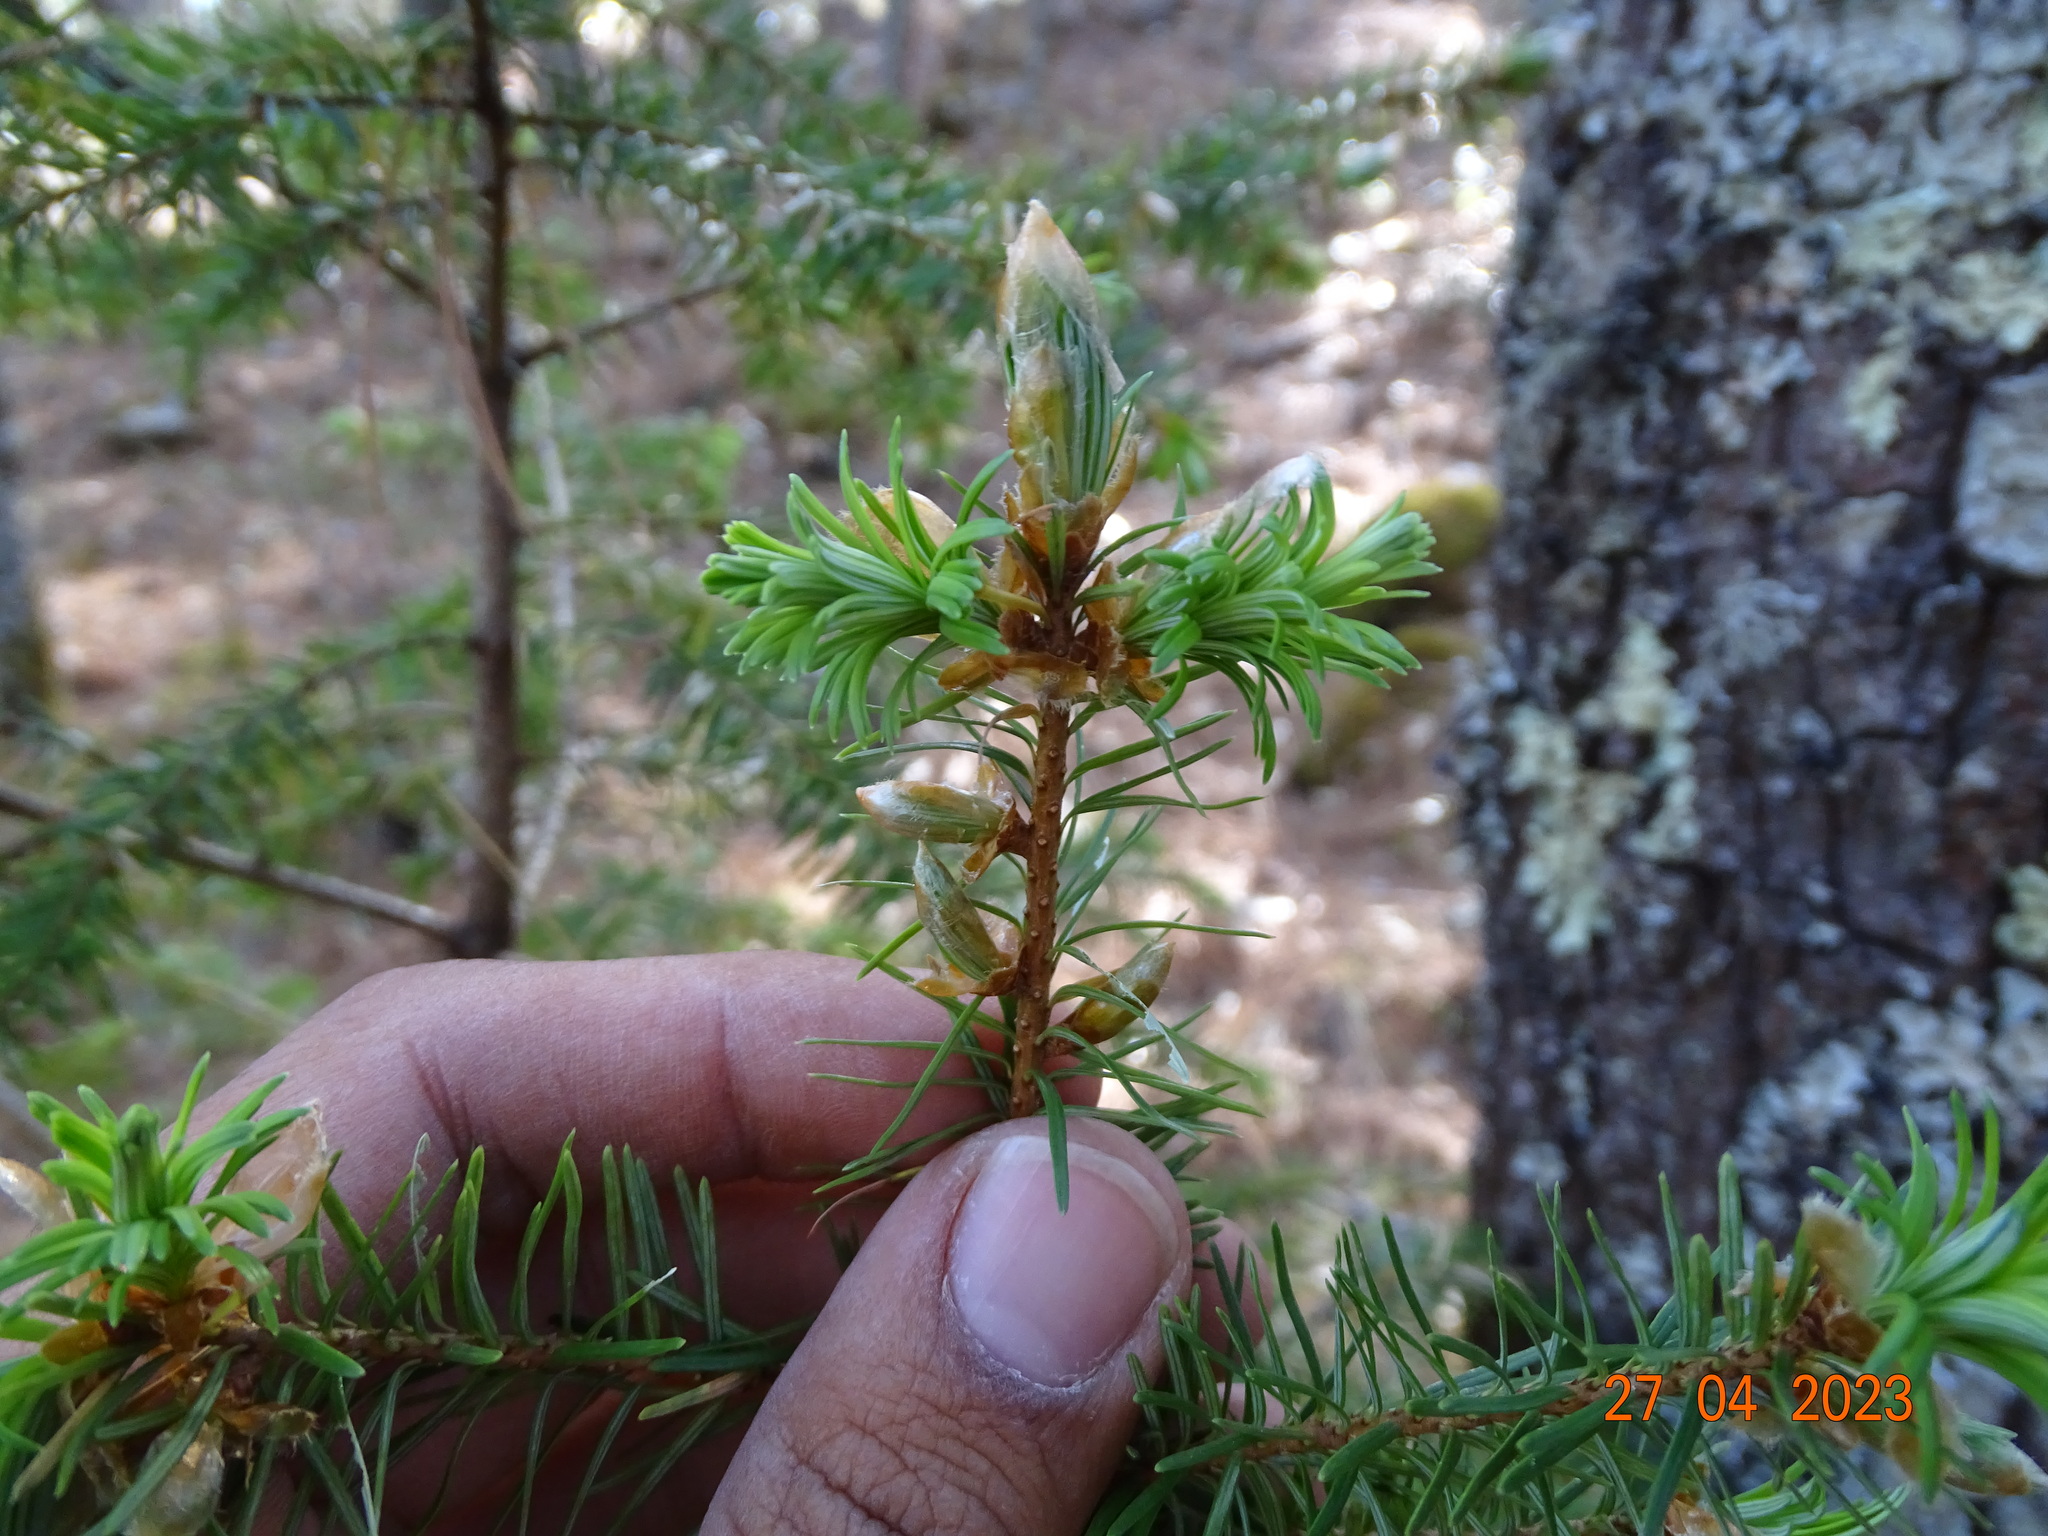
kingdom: Plantae
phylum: Tracheophyta
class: Pinopsida
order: Pinales
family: Pinaceae
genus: Pseudotsuga
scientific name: Pseudotsuga menziesii
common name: Douglas fir
